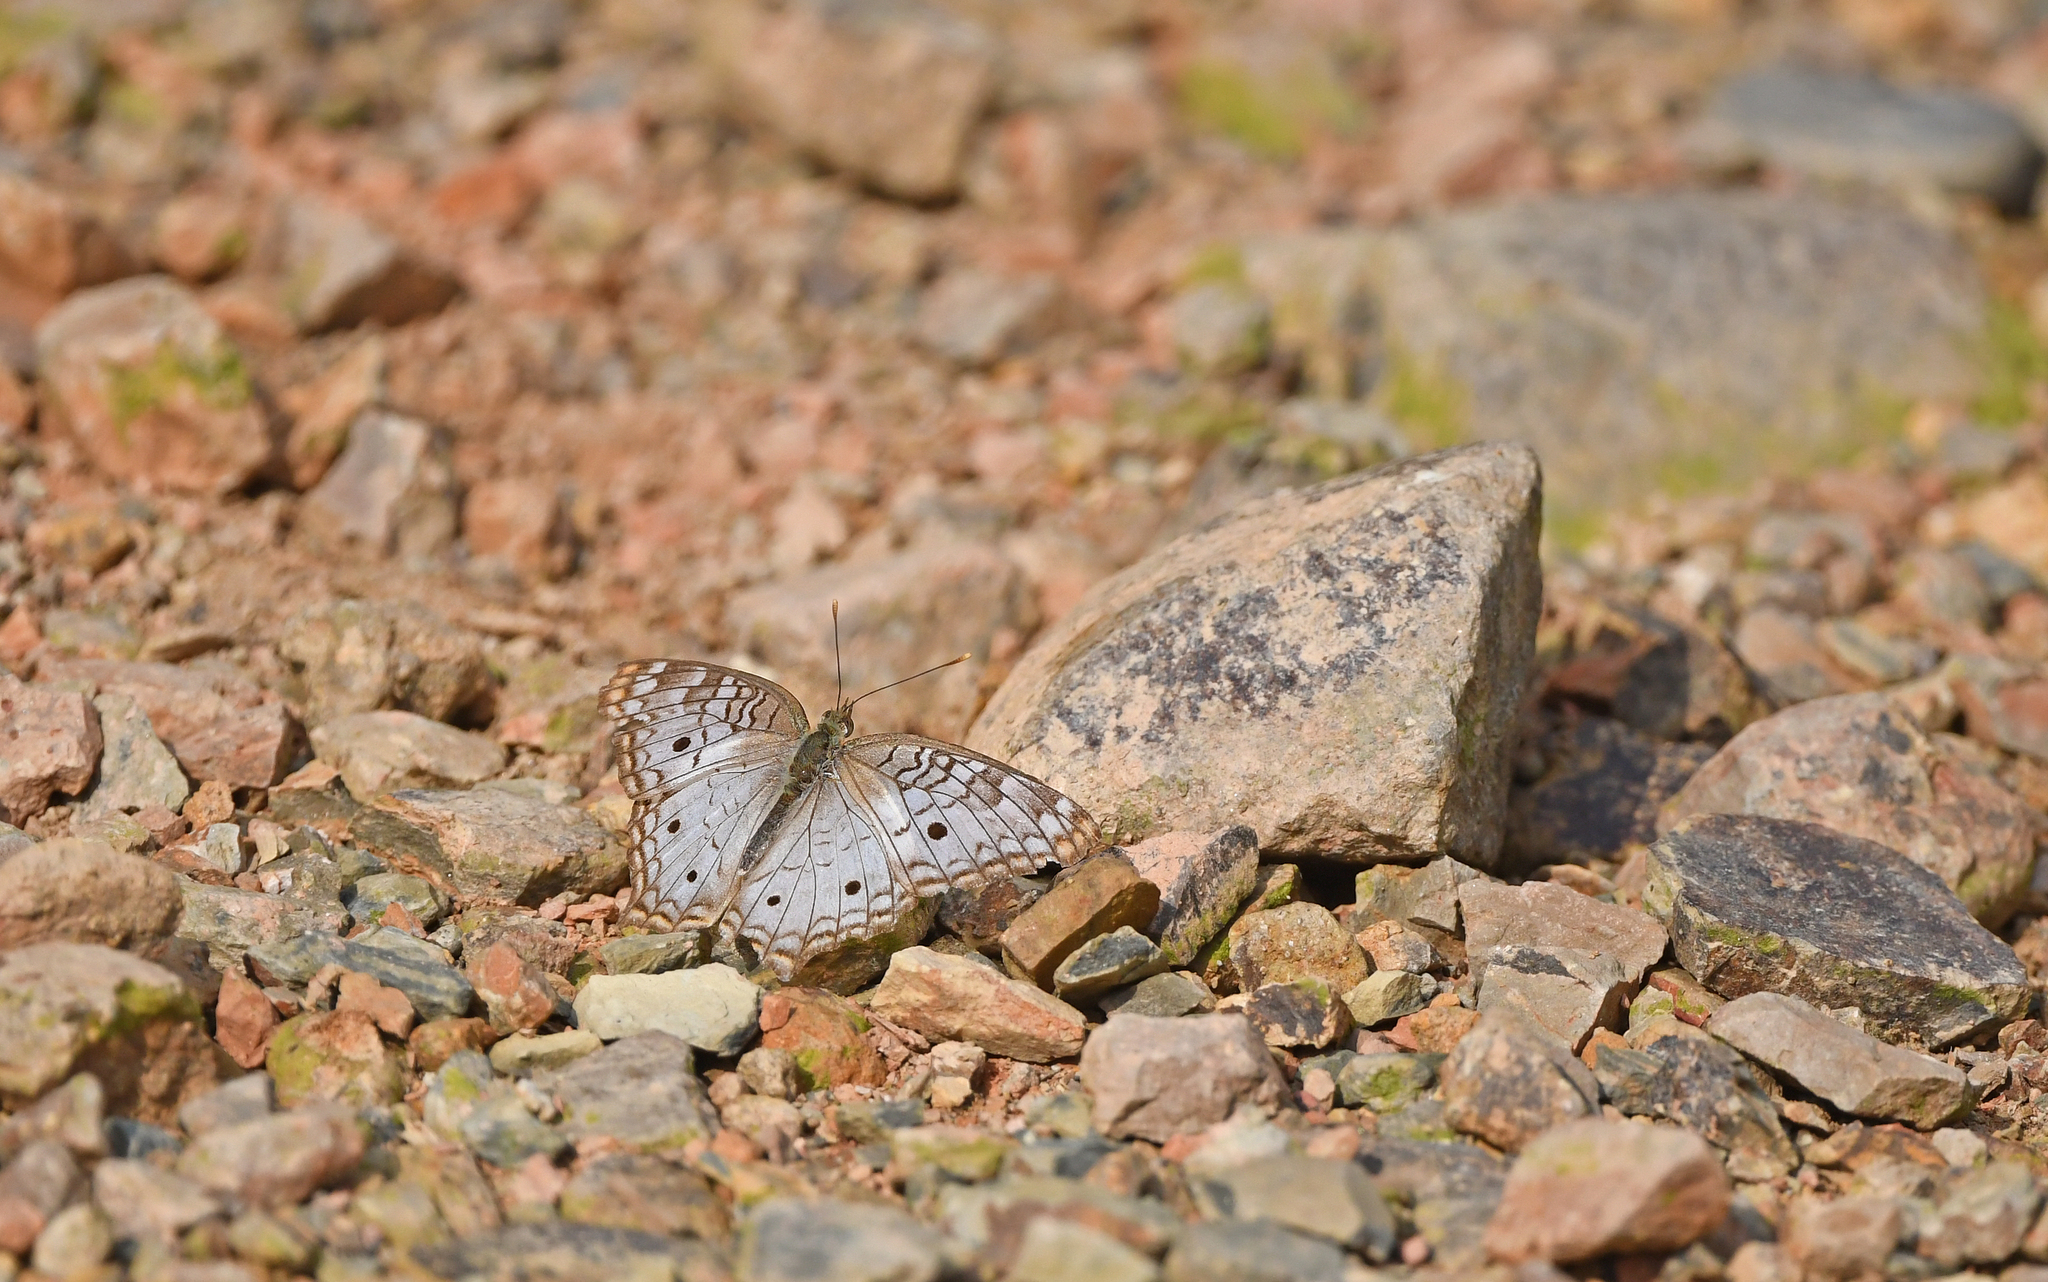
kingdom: Animalia
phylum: Arthropoda
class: Insecta
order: Lepidoptera
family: Nymphalidae
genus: Anartia
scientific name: Anartia jatrophae
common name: White peacock
